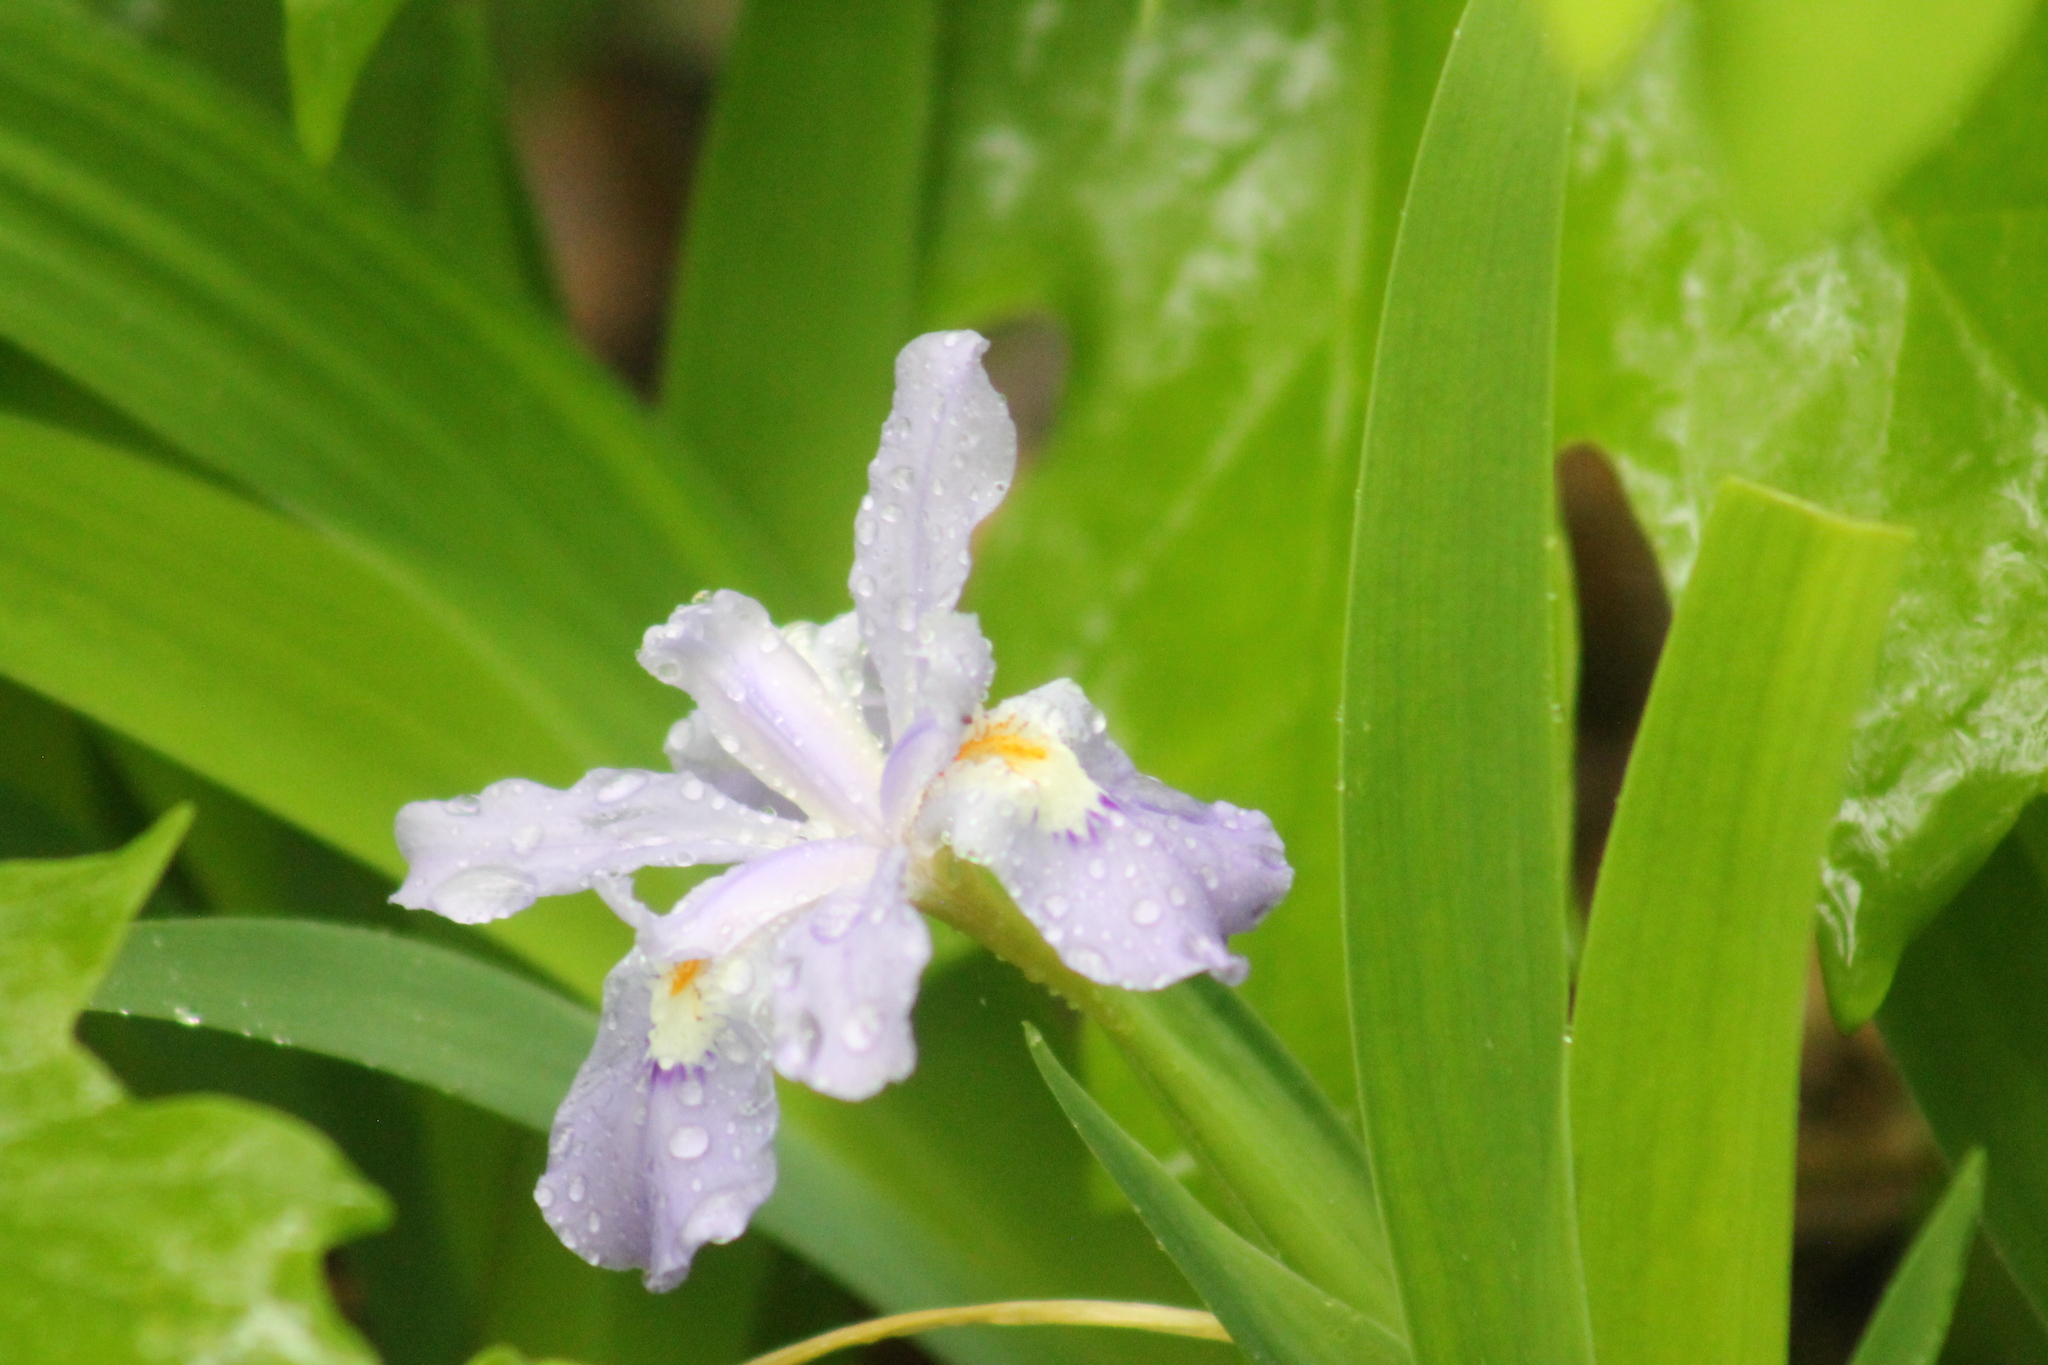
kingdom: Plantae
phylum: Tracheophyta
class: Liliopsida
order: Asparagales
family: Iridaceae
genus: Iris
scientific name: Iris cristata
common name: Crested iris
